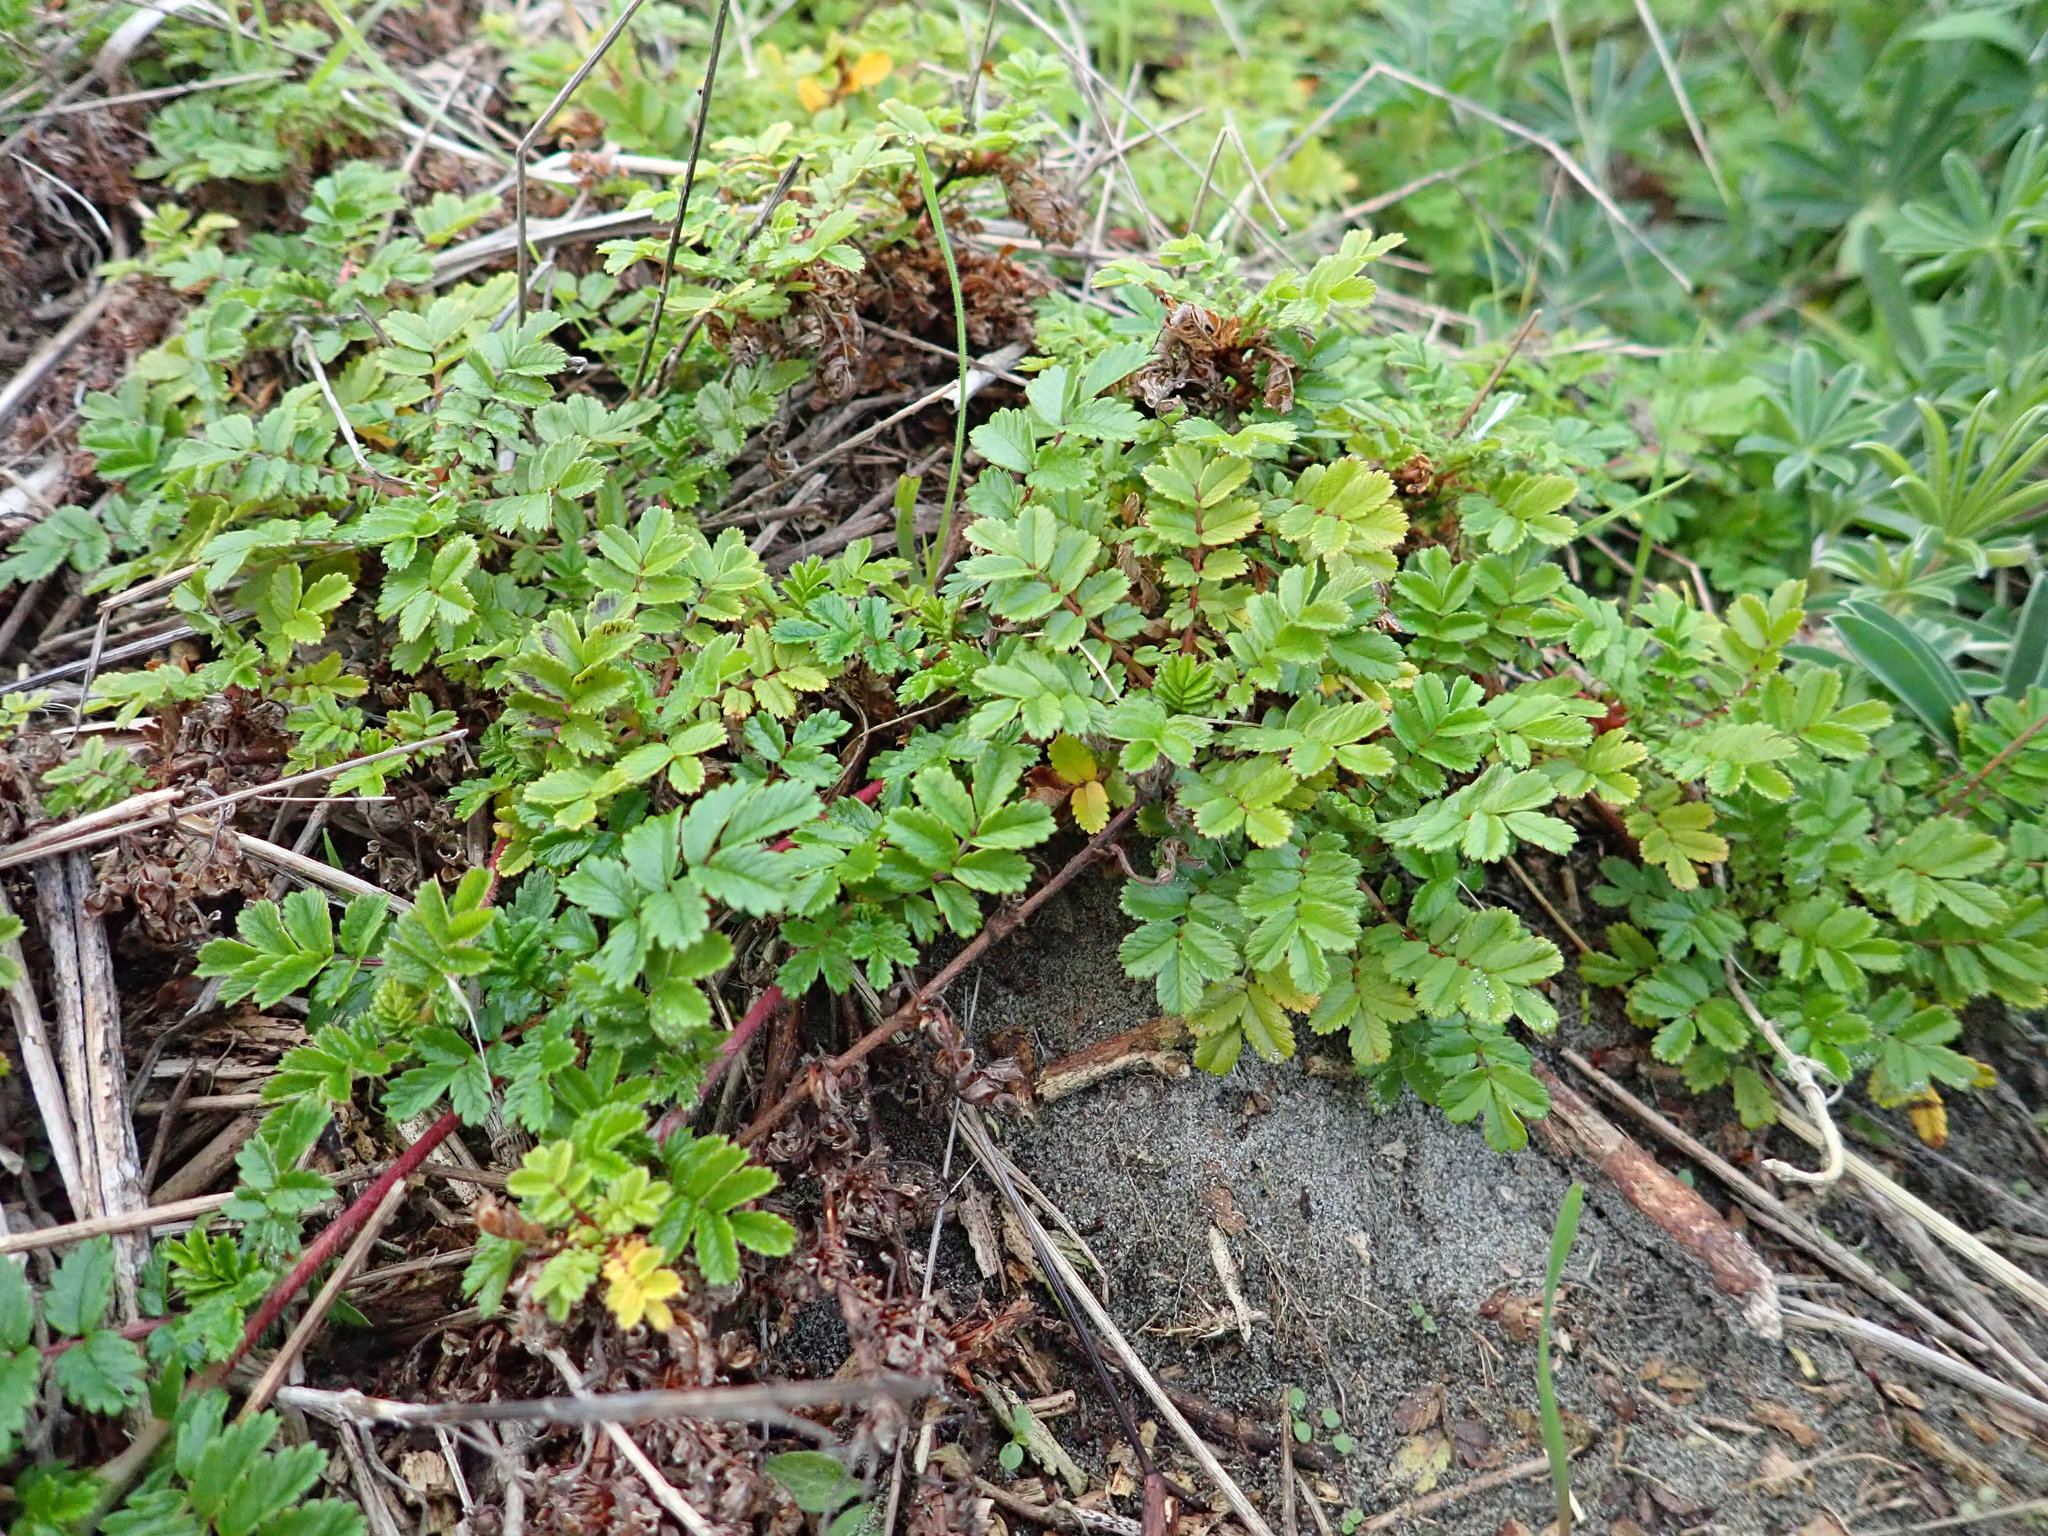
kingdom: Plantae
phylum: Tracheophyta
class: Magnoliopsida
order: Rosales
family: Rosaceae
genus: Acaena
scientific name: Acaena novae-zelandiae
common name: Pirri-pirri-bur
